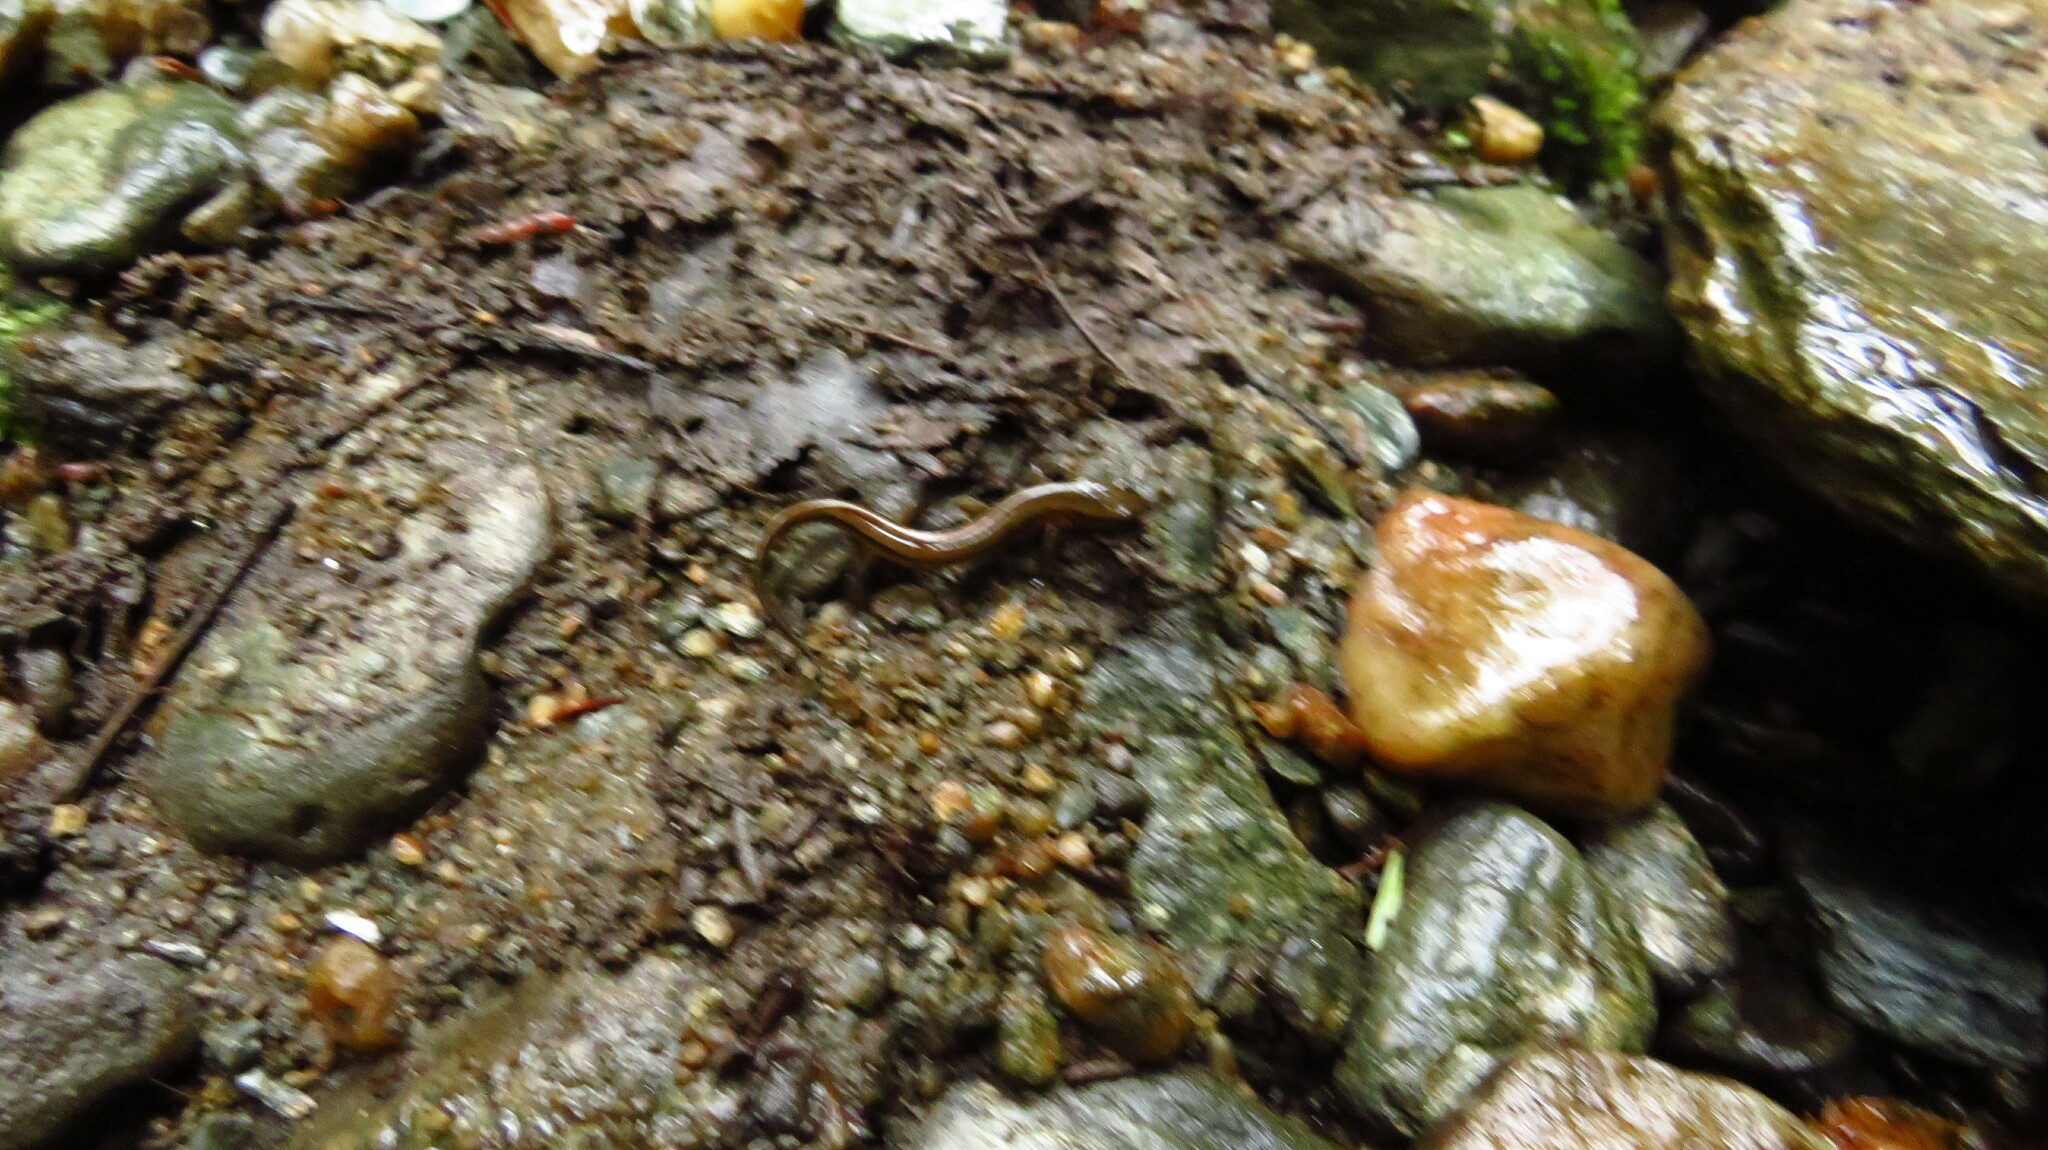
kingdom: Animalia
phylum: Chordata
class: Amphibia
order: Caudata
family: Plethodontidae
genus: Eurycea
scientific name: Eurycea bislineata
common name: Northern two-lined salamander
